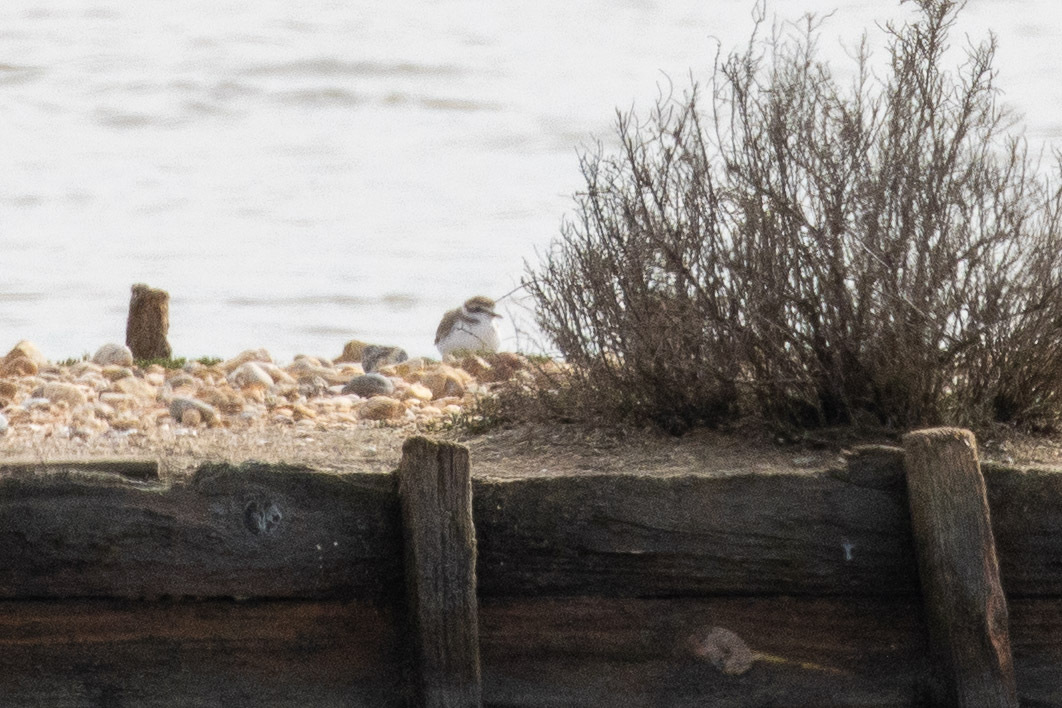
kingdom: Animalia
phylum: Chordata
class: Aves
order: Charadriiformes
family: Charadriidae
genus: Charadrius
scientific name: Charadrius alexandrinus
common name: Kentish plover
